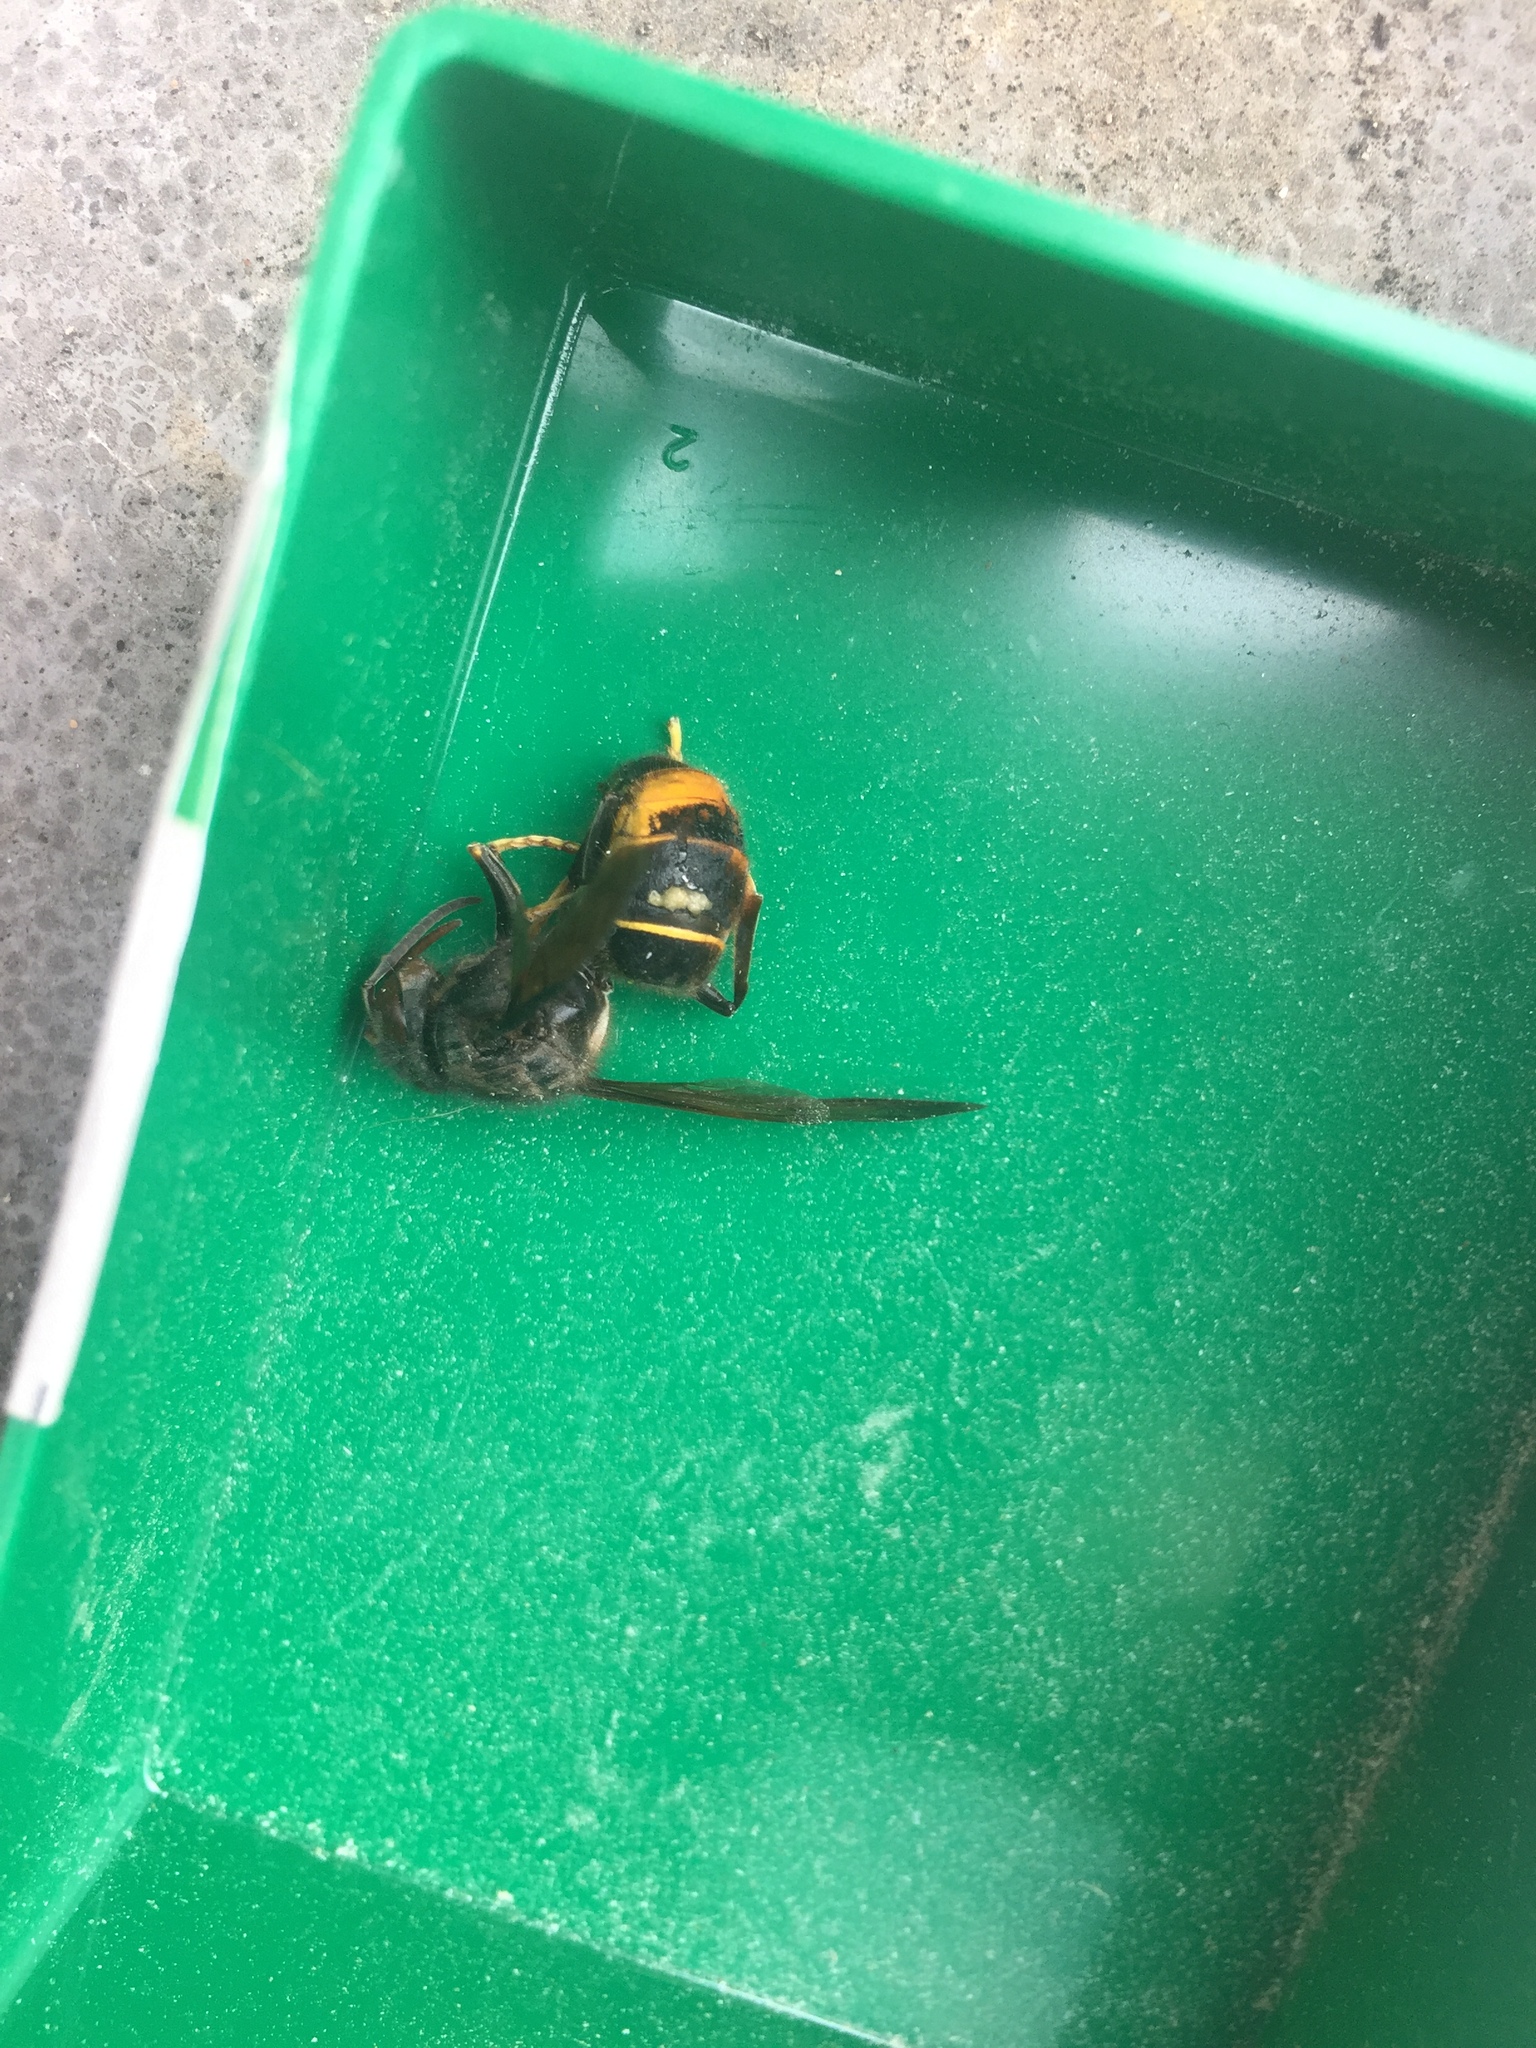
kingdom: Animalia
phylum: Arthropoda
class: Insecta
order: Hymenoptera
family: Vespidae
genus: Vespa
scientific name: Vespa velutina
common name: Asian hornet
